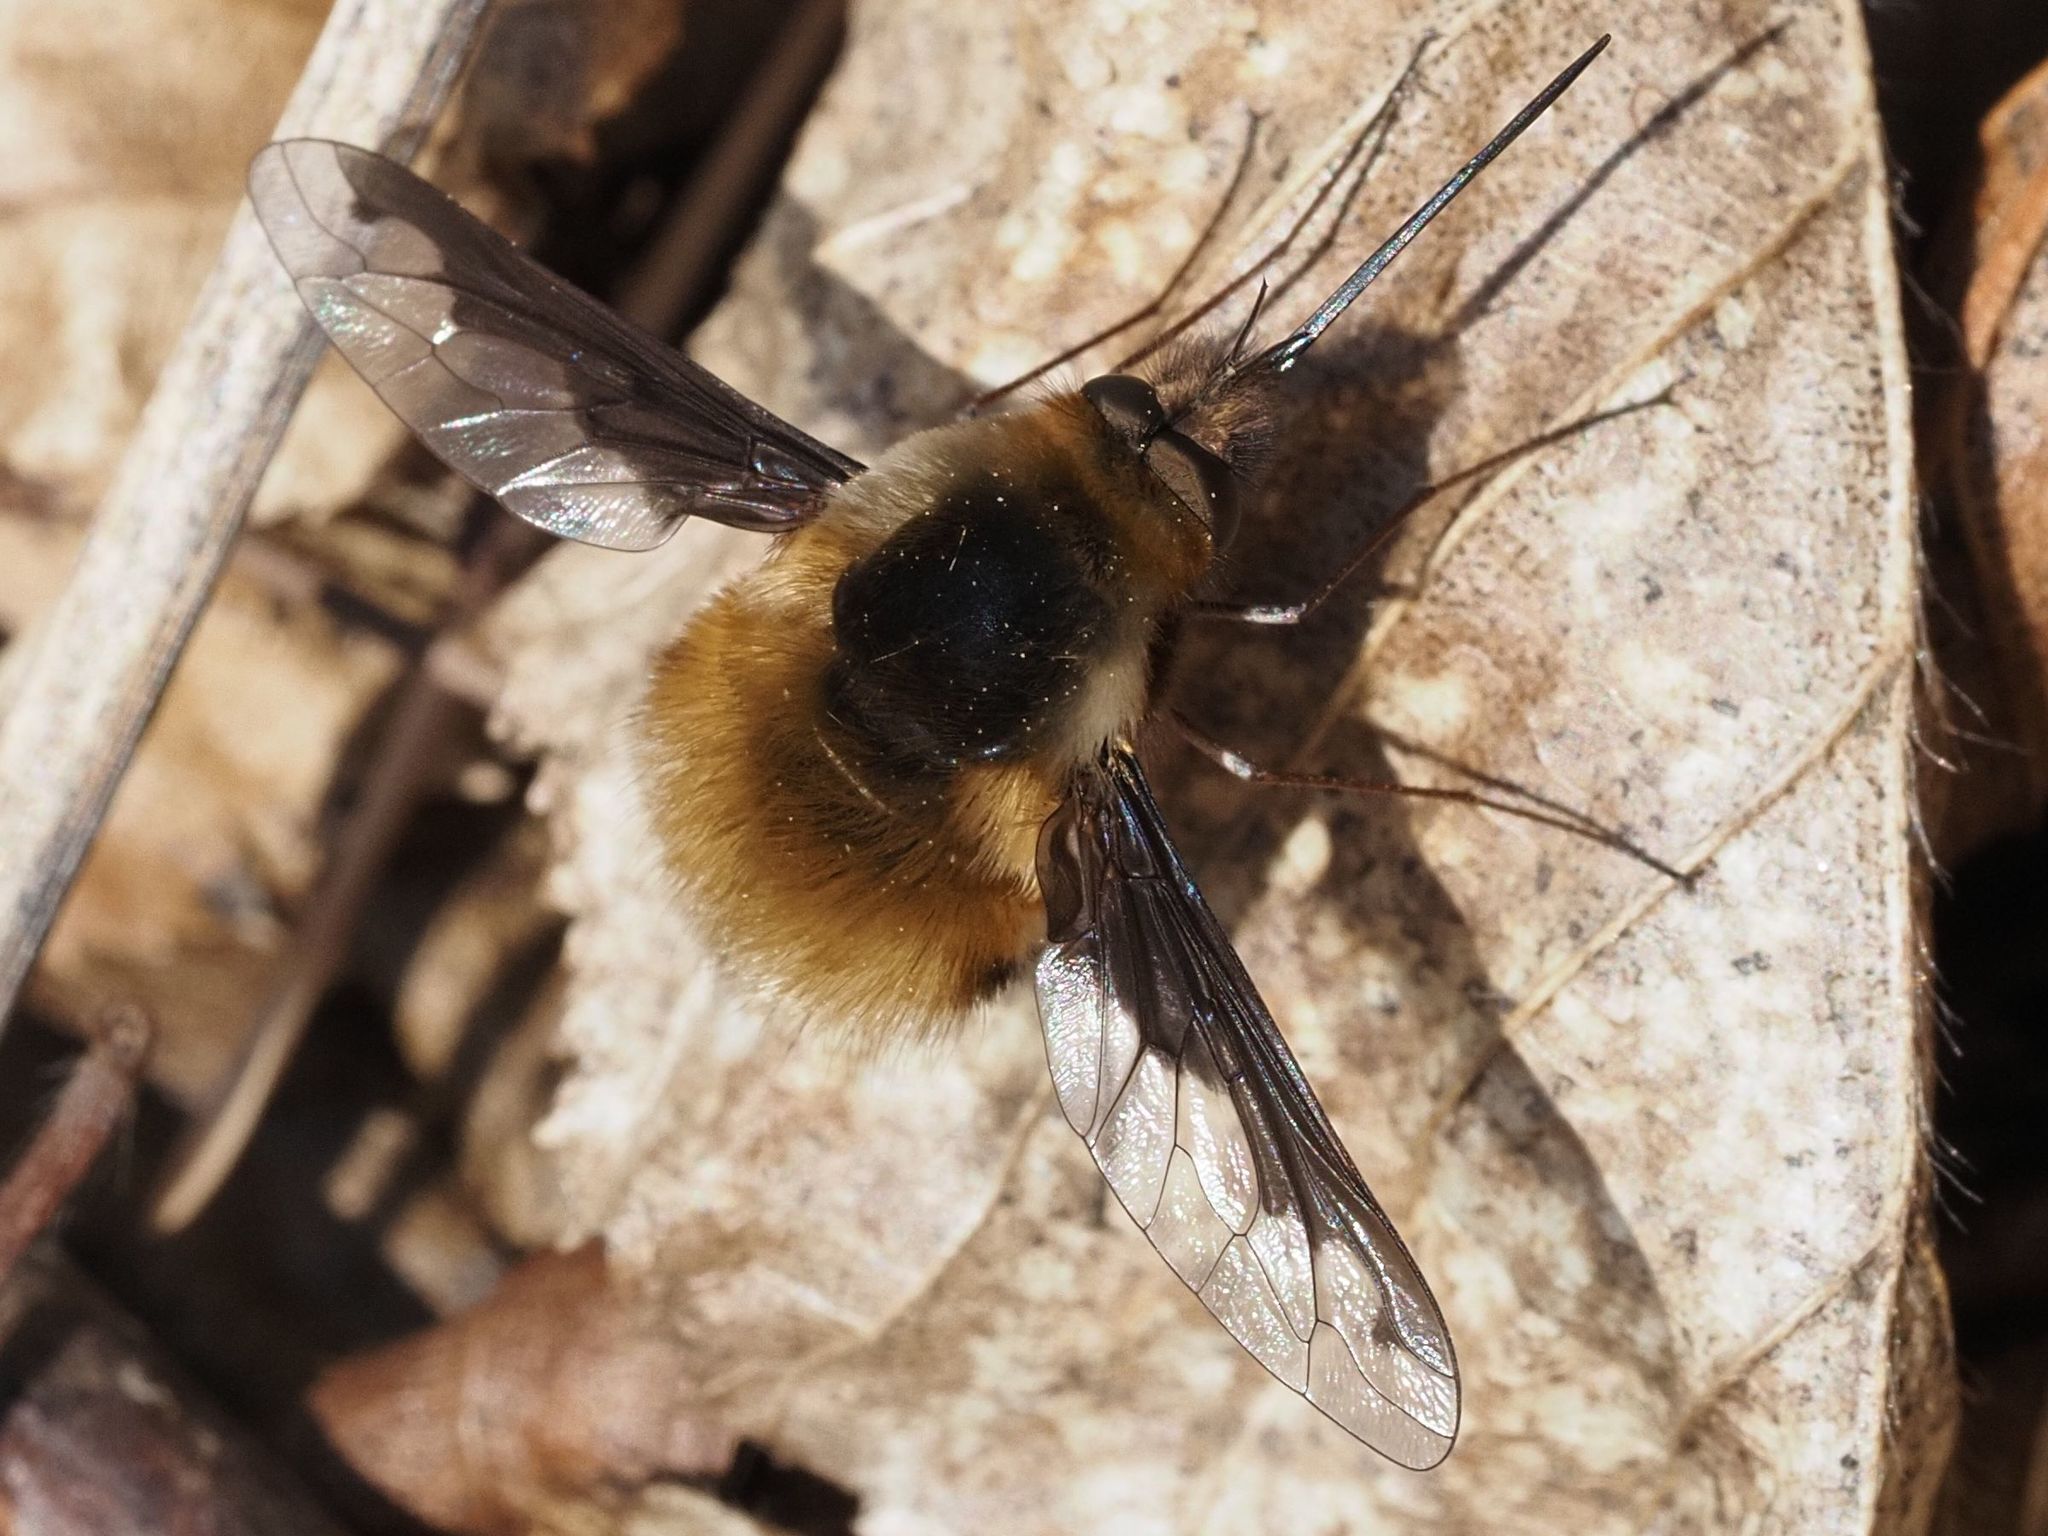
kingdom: Animalia
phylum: Arthropoda
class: Insecta
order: Diptera
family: Bombyliidae
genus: Bombylius
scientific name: Bombylius major
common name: Bee fly
